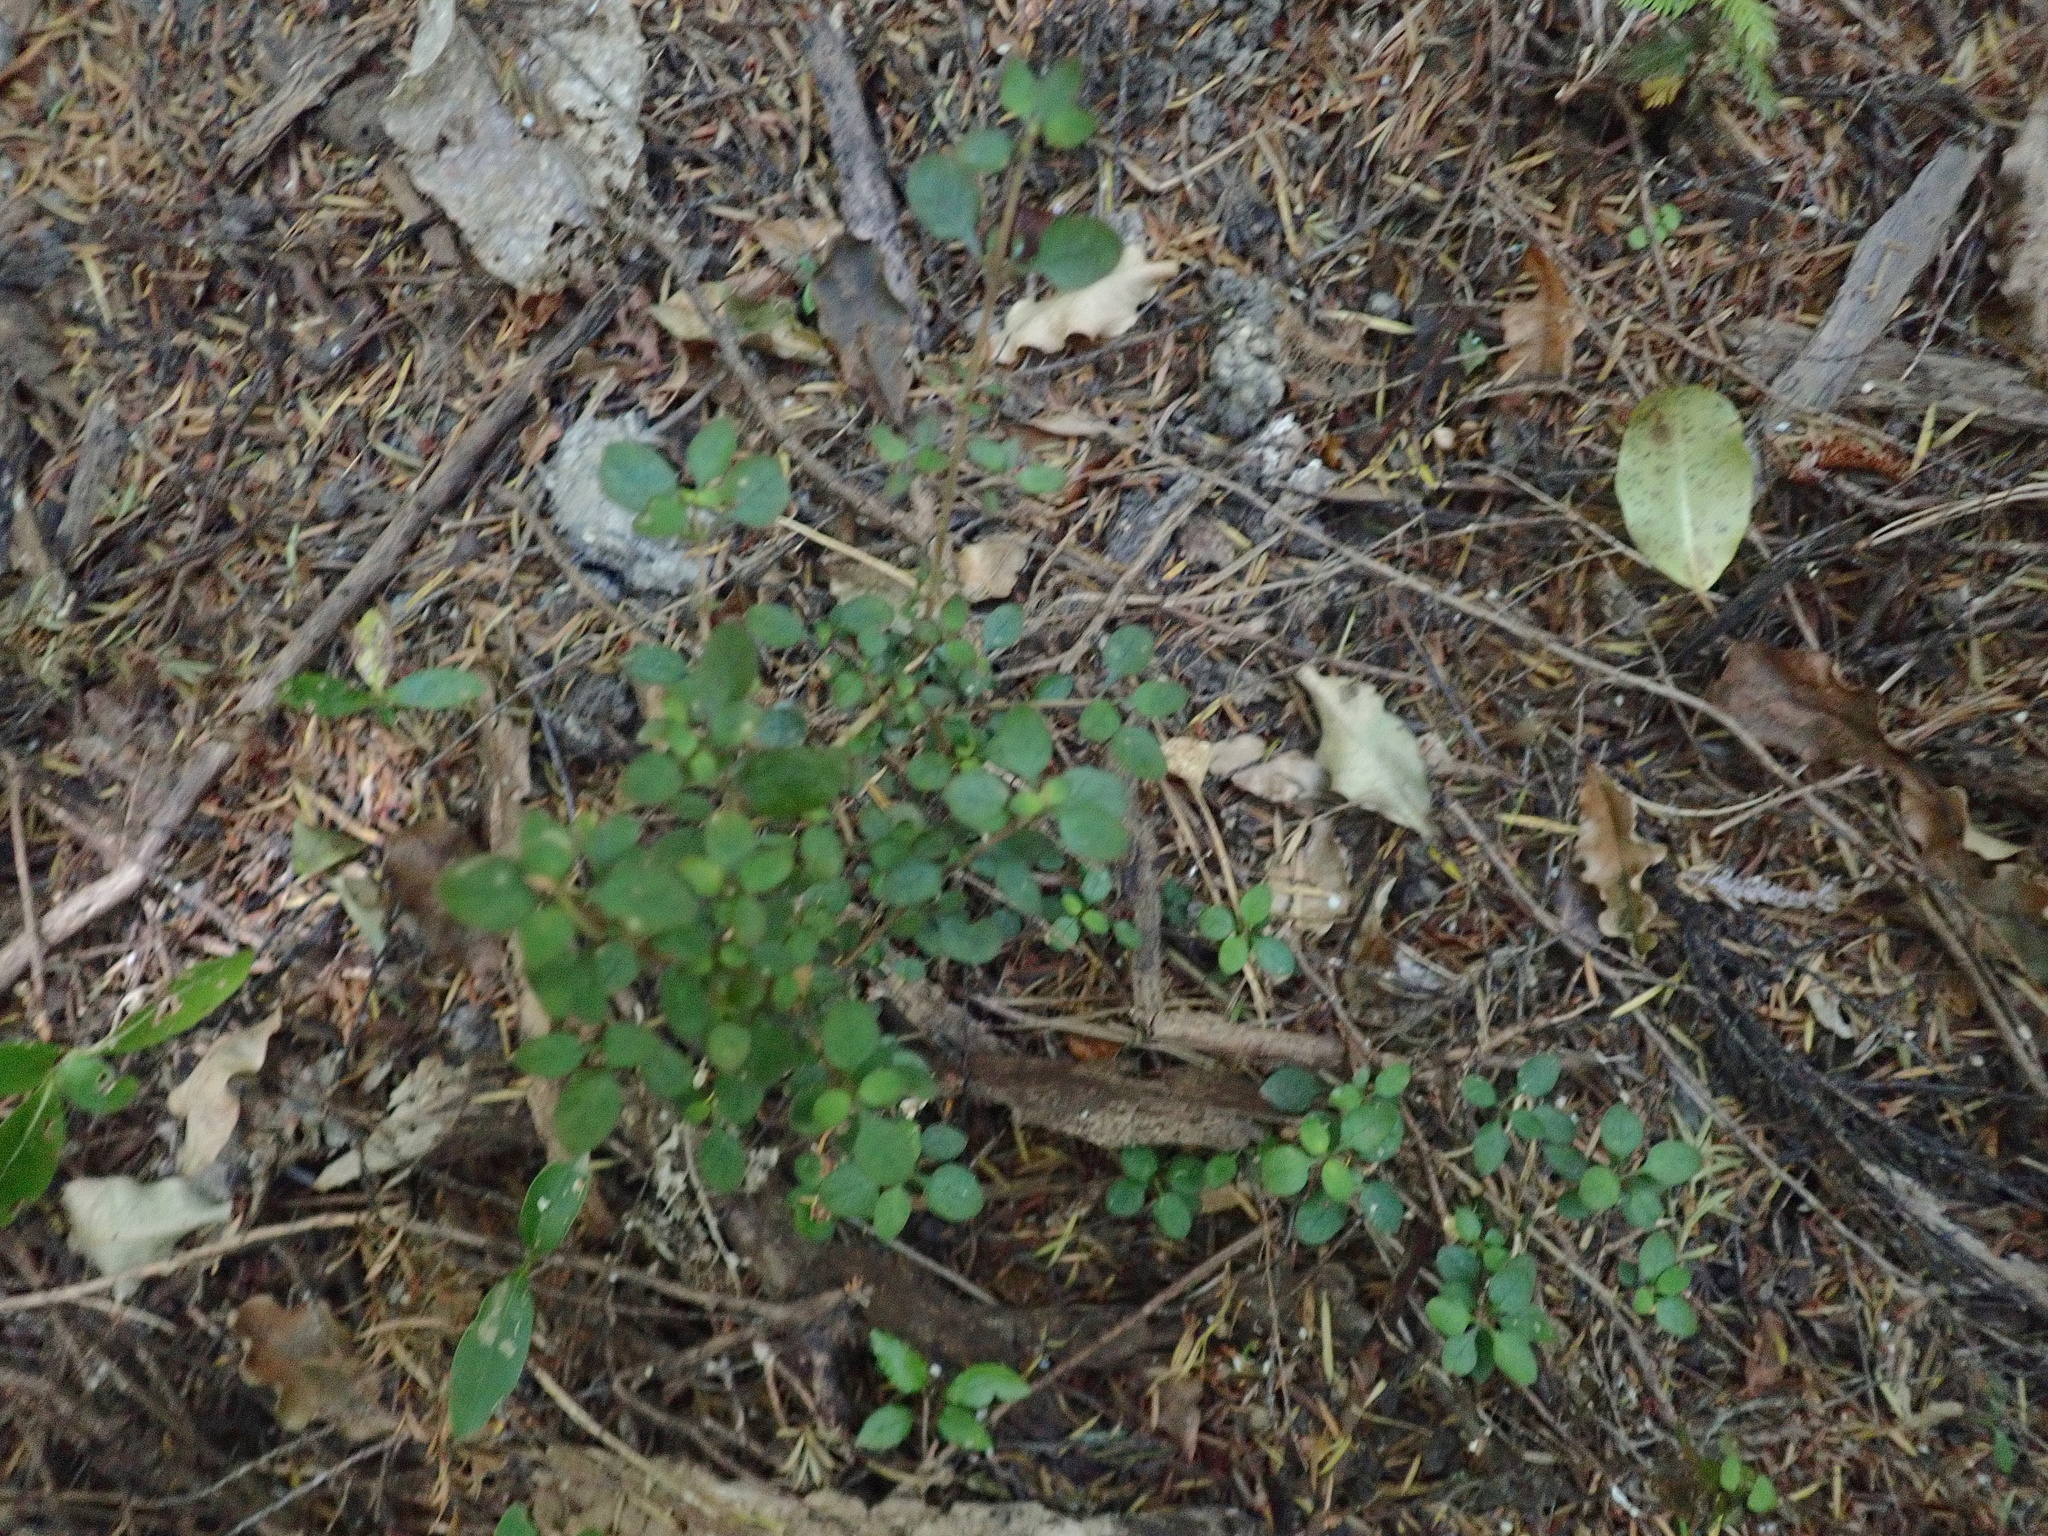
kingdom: Plantae
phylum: Tracheophyta
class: Magnoliopsida
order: Gentianales
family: Rubiaceae
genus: Coprosma
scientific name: Coprosma rhamnoides
